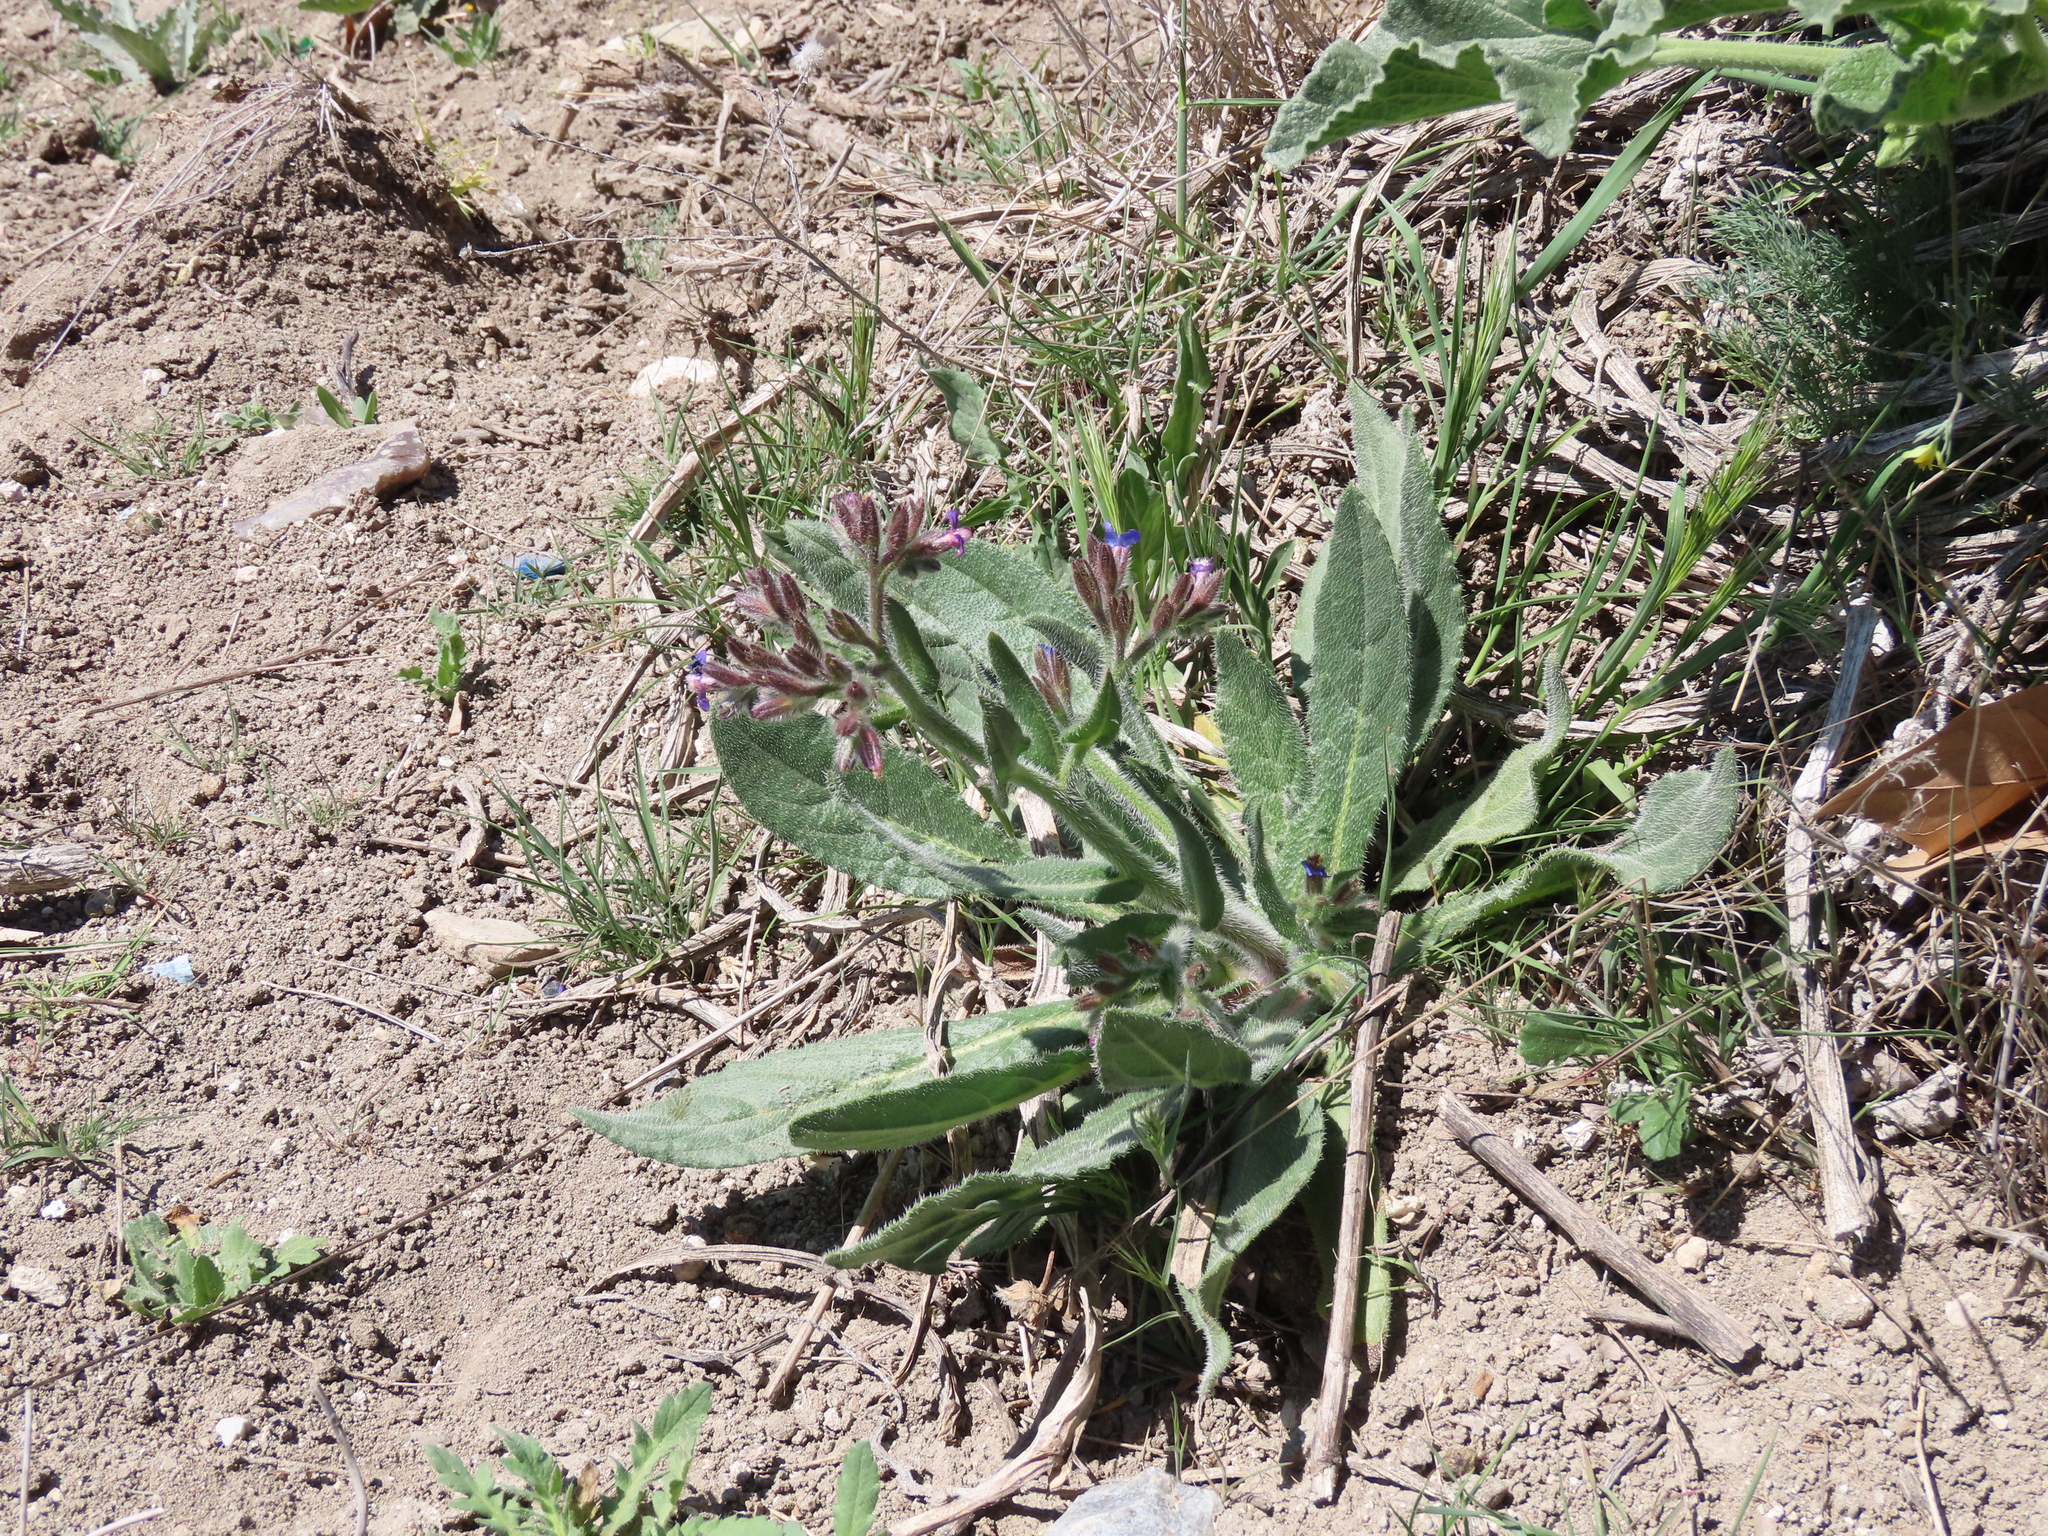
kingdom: Plantae
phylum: Tracheophyta
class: Magnoliopsida
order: Boraginales
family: Boraginaceae
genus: Anchusa
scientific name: Anchusa azurea
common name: Garden anchusa
